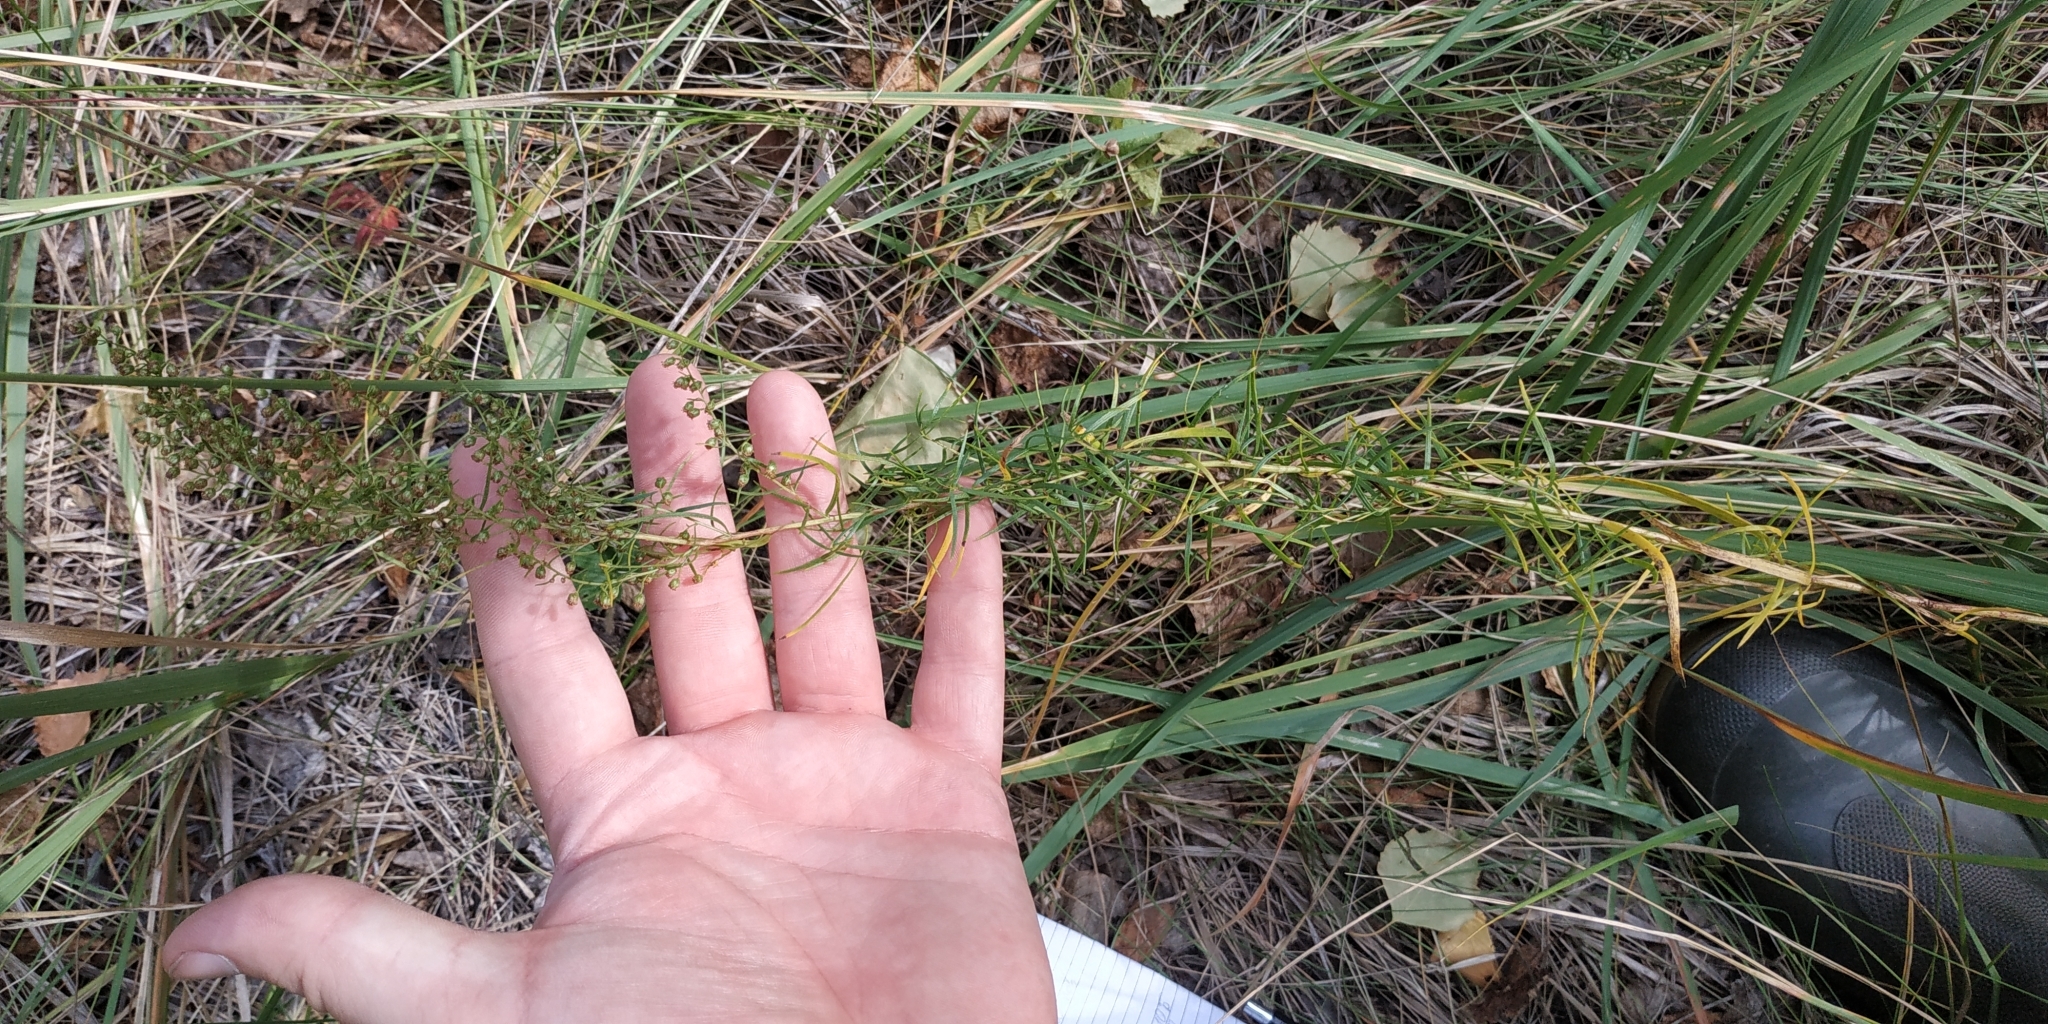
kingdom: Plantae
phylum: Tracheophyta
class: Magnoliopsida
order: Asterales
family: Asteraceae
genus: Artemisia
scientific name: Artemisia dracunculus
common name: Tarragon
